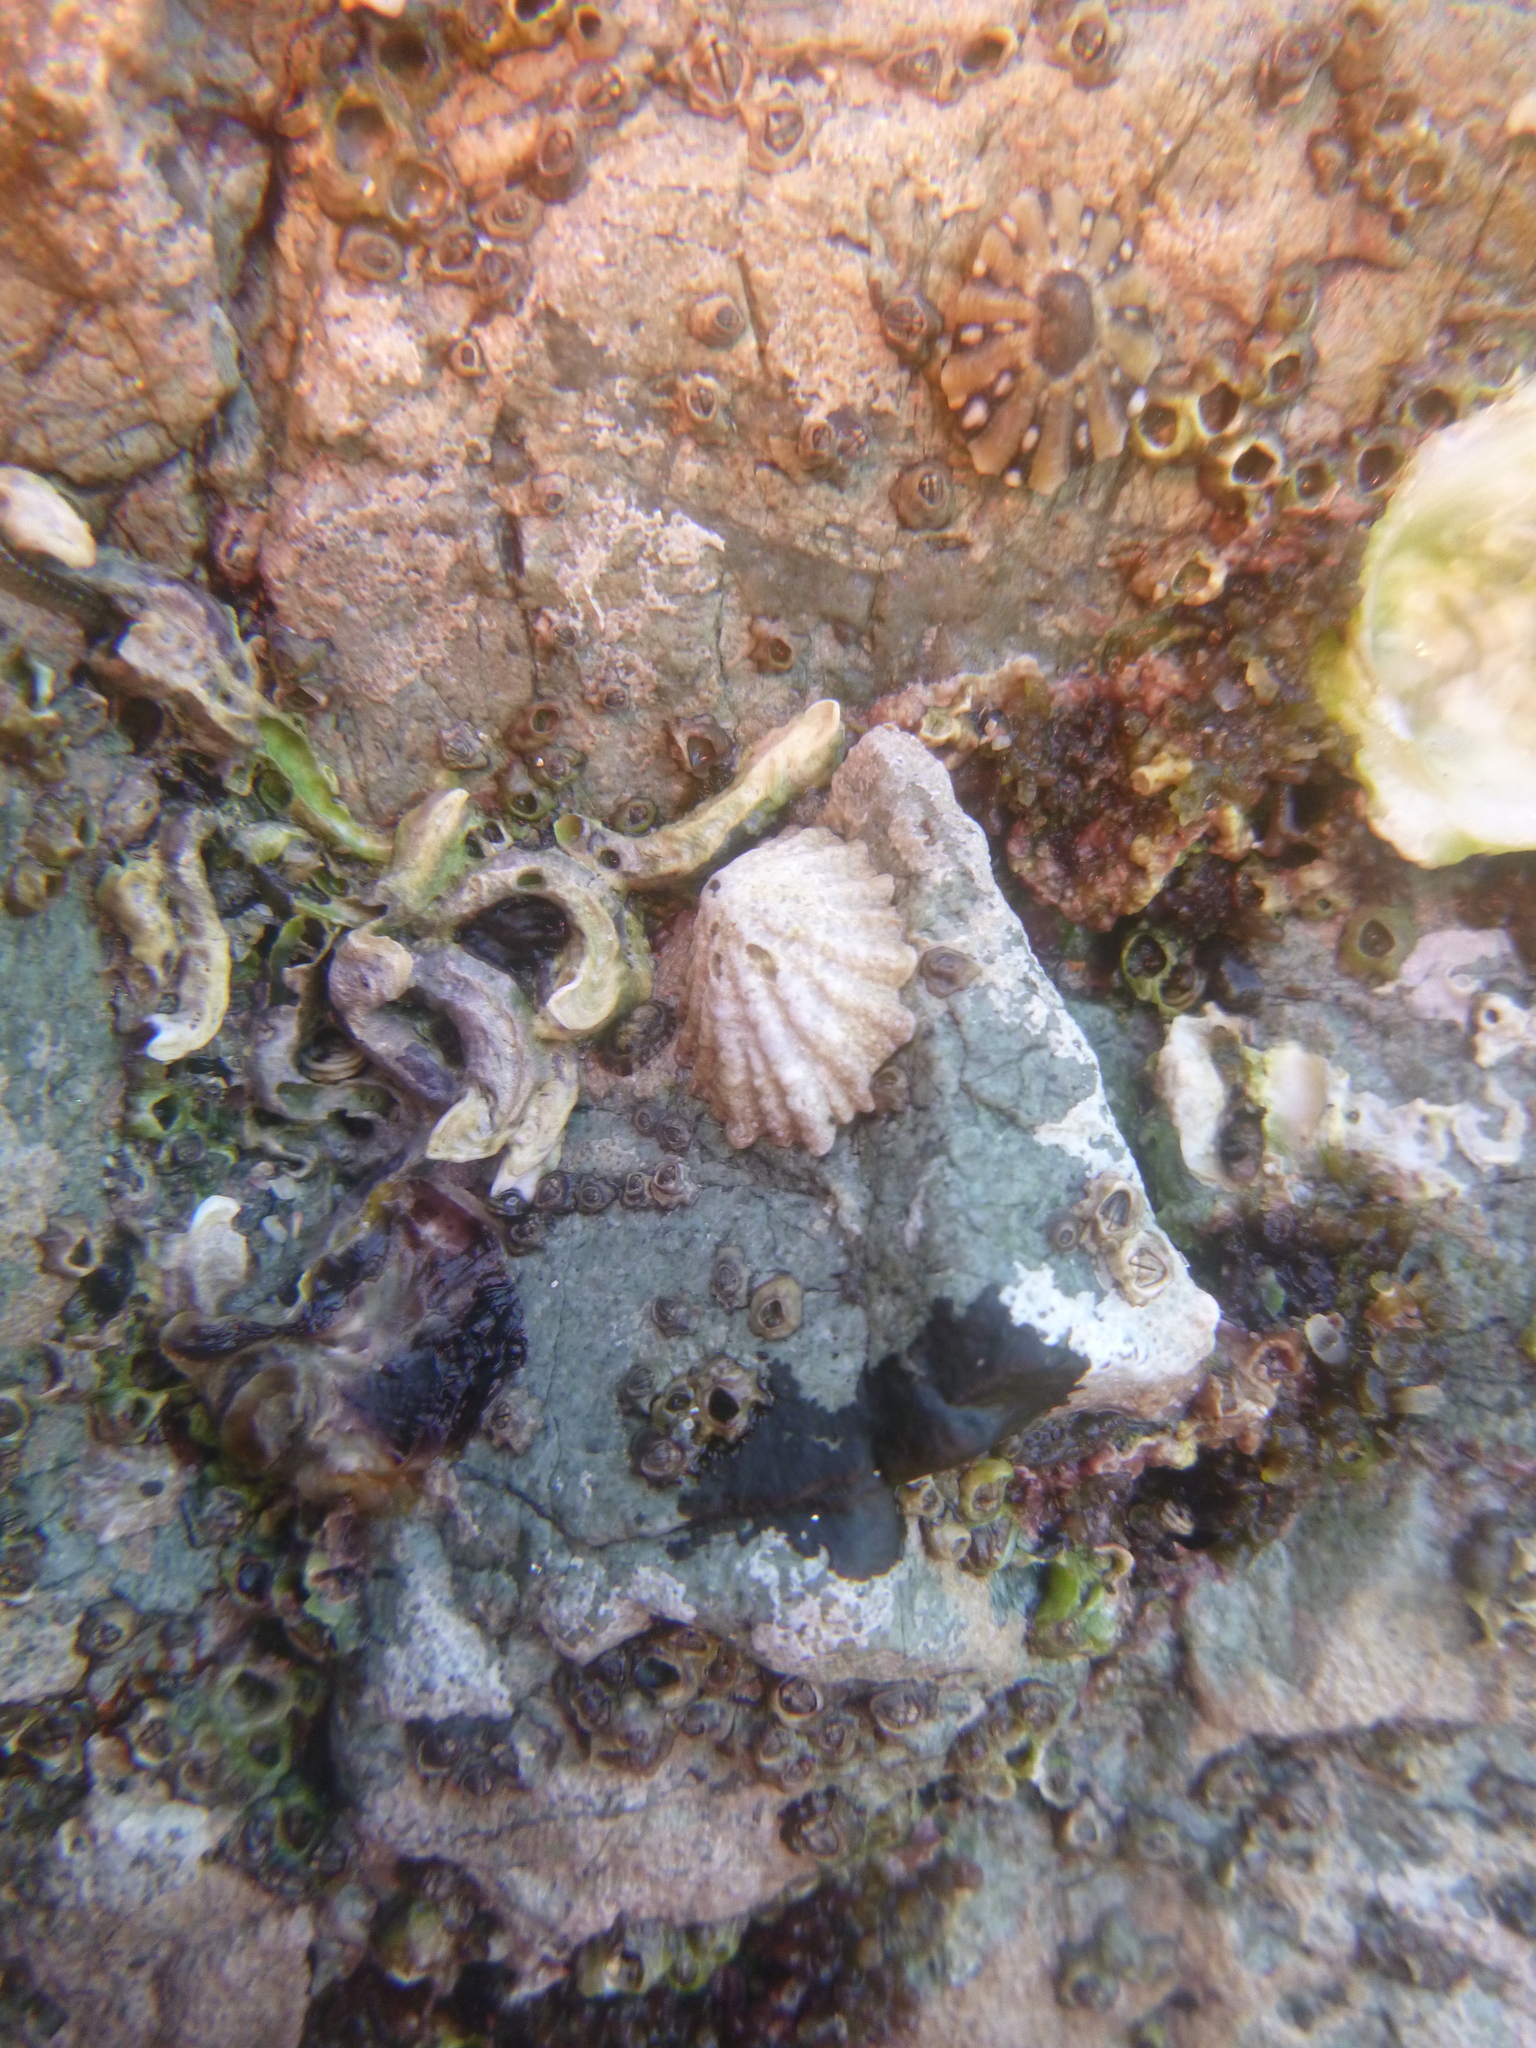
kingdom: Animalia
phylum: Mollusca
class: Gastropoda
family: Lottiidae
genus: Patelloida
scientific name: Patelloida corticata
